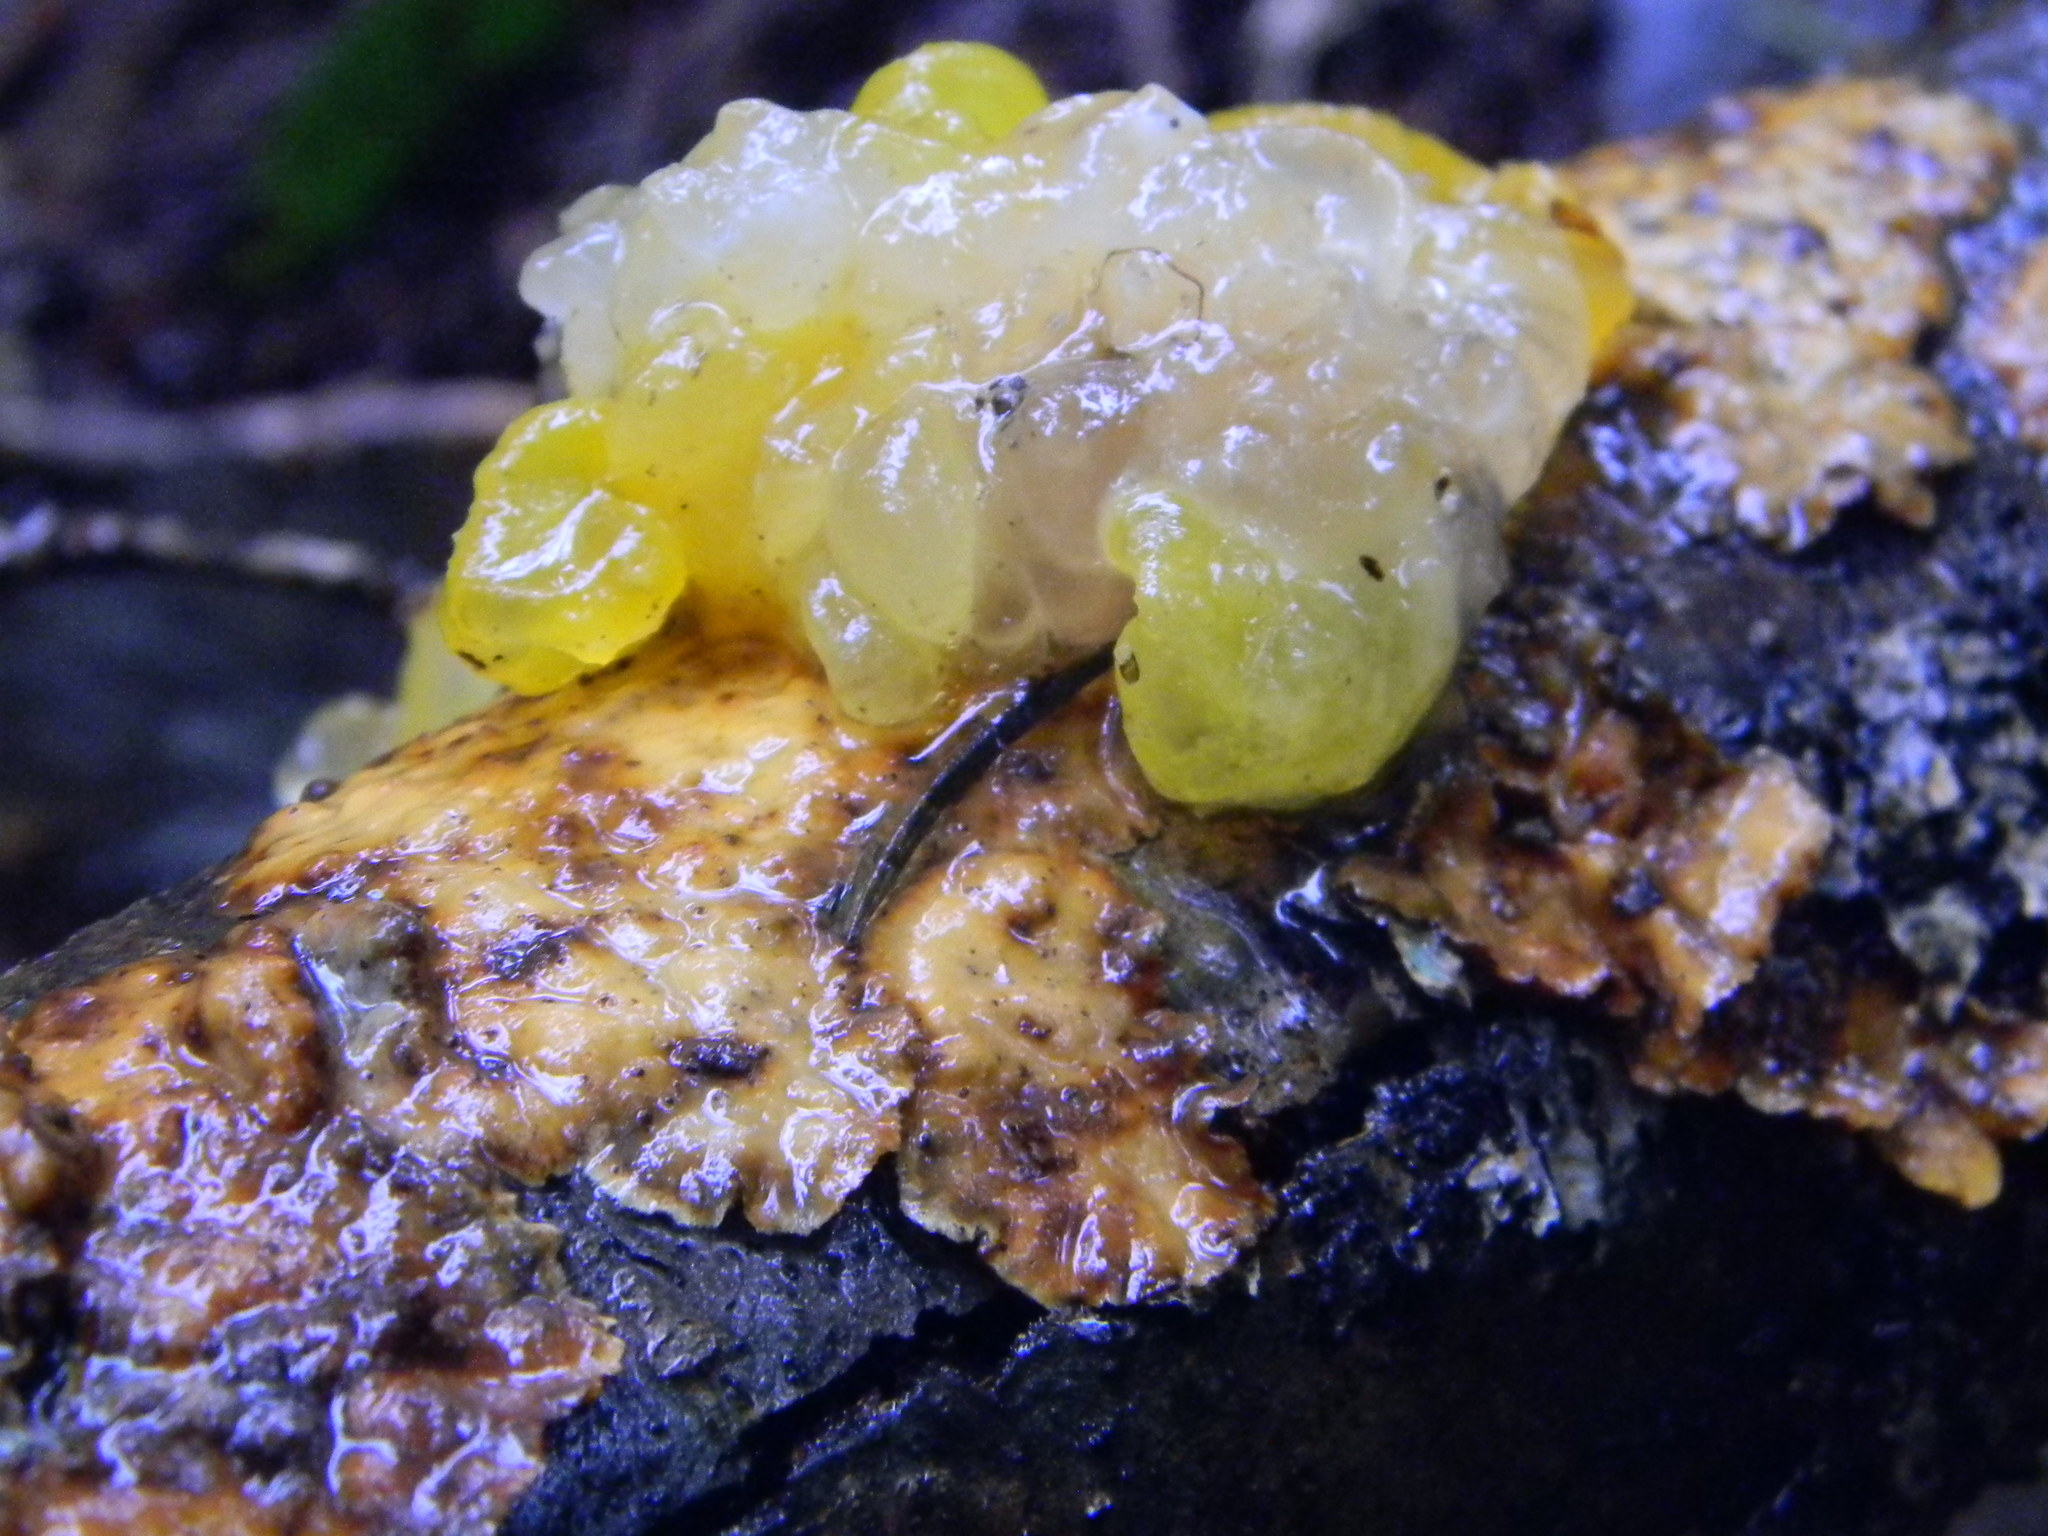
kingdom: Fungi
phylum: Basidiomycota
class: Tremellomycetes
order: Tremellales
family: Naemateliaceae
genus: Naematelia
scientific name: Naematelia aurantia
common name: Golden ear
